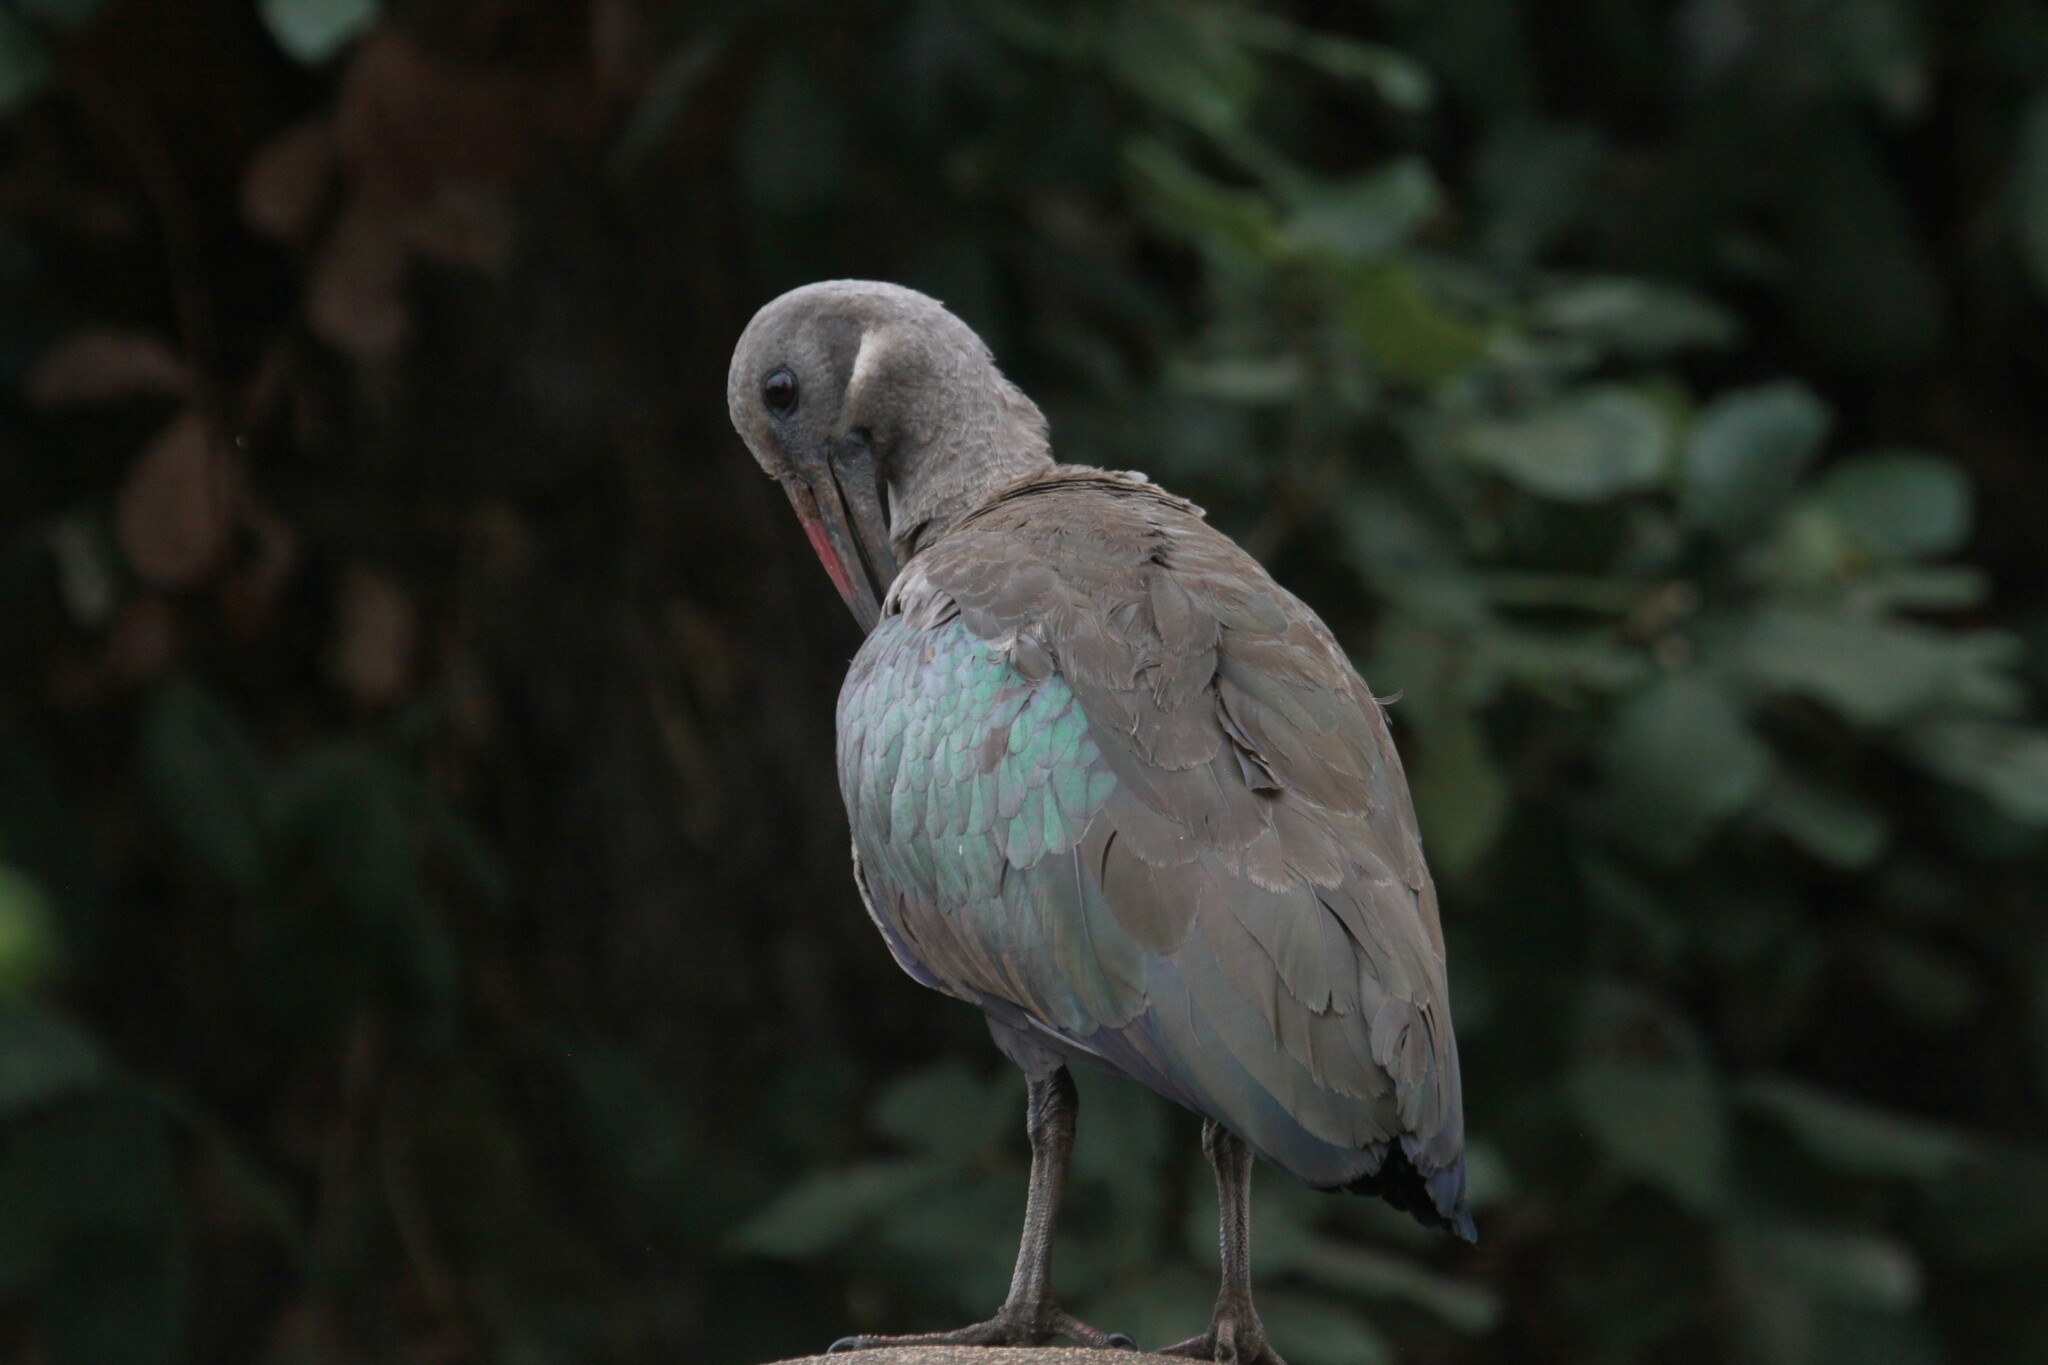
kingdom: Animalia
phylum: Chordata
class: Aves
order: Pelecaniformes
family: Threskiornithidae
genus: Bostrychia
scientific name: Bostrychia hagedash
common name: Hadada ibis
